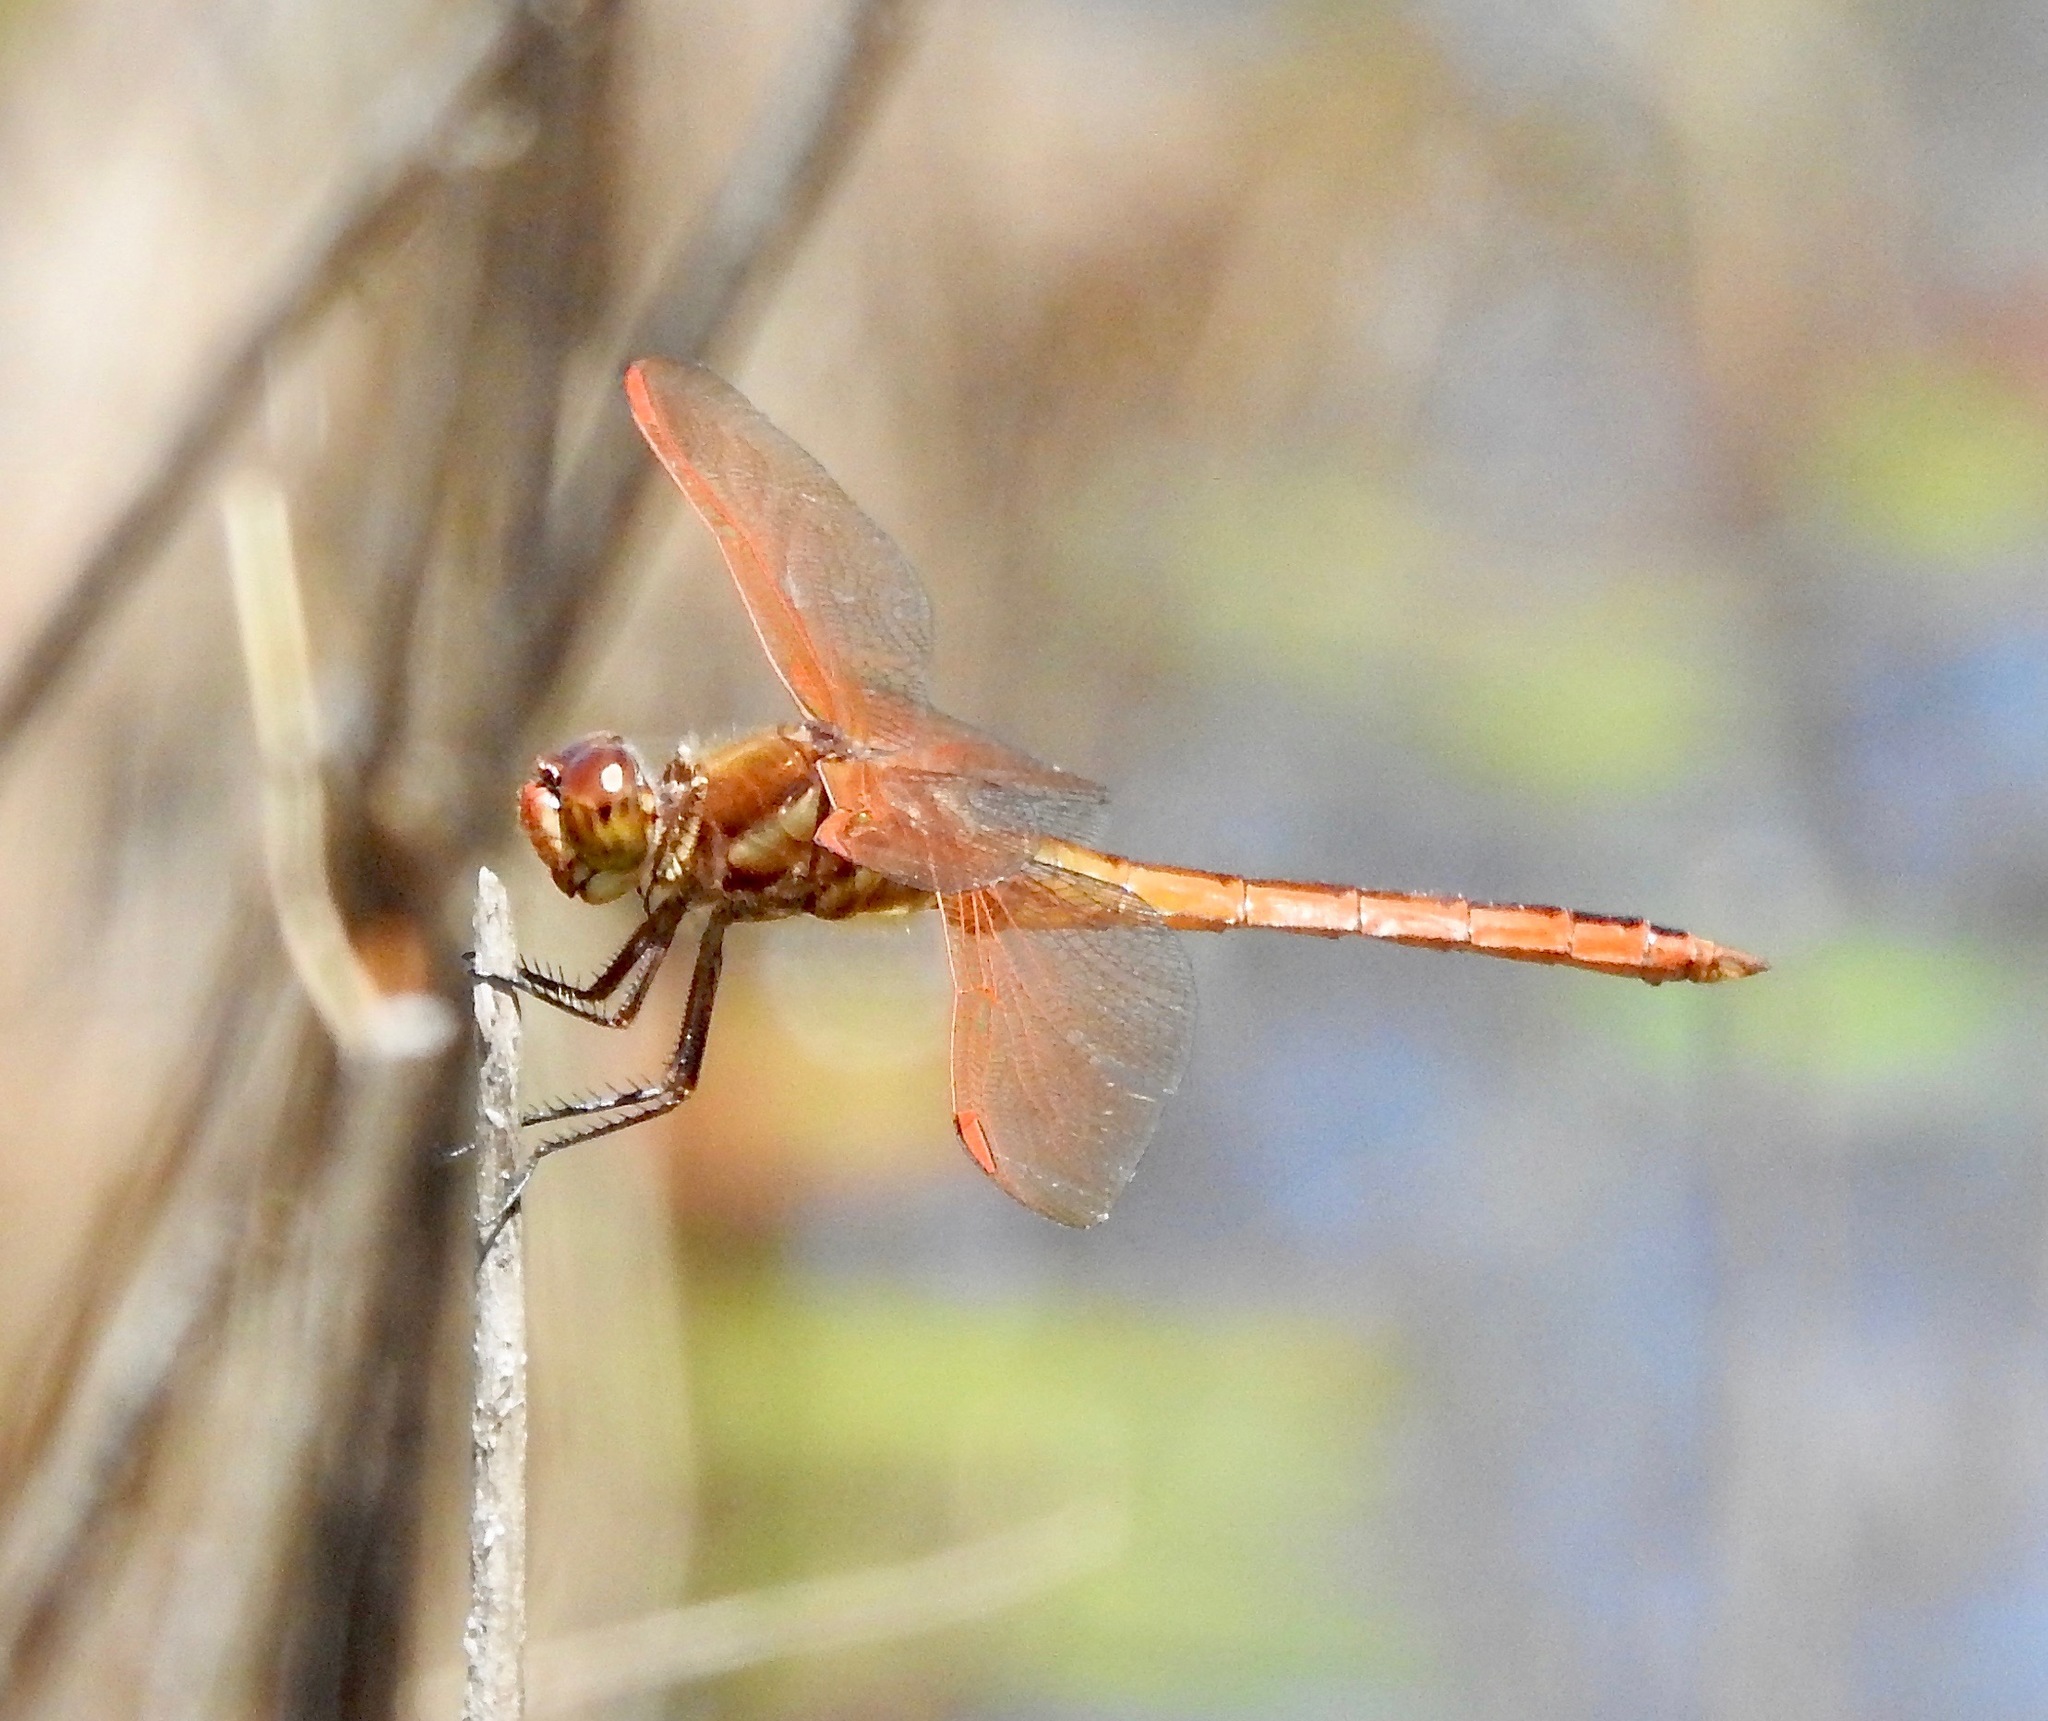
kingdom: Animalia
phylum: Arthropoda
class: Insecta
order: Odonata
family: Libellulidae
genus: Libellula
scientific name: Libellula auripennis
